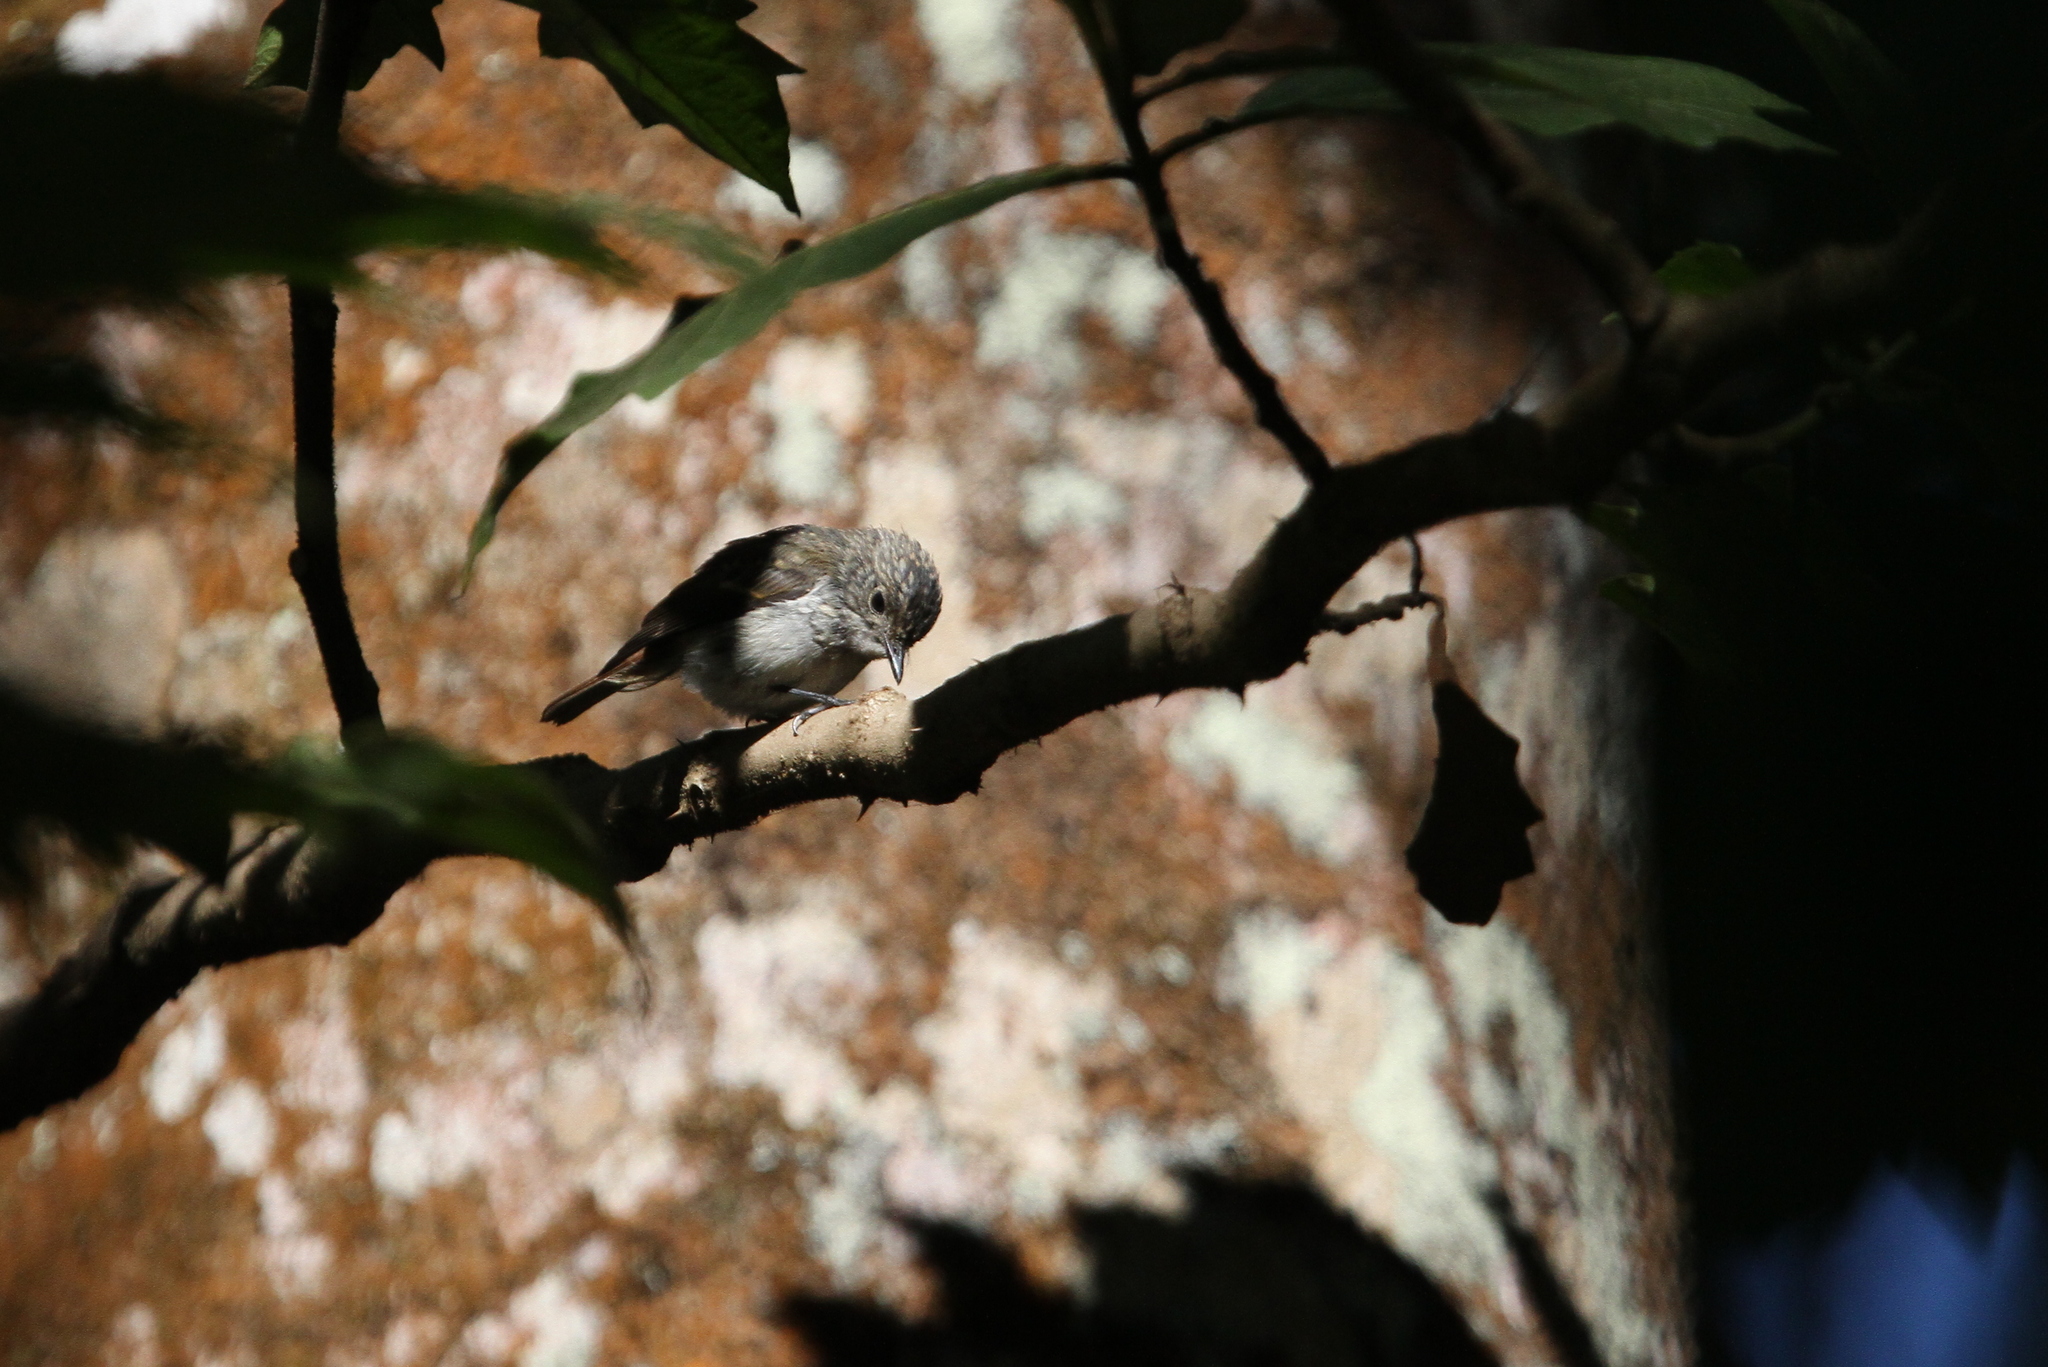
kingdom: Animalia
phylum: Chordata
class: Aves
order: Passeriformes
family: Muscicapidae
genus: Ficedula
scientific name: Ficedula westermanni
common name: Little pied flycatcher
